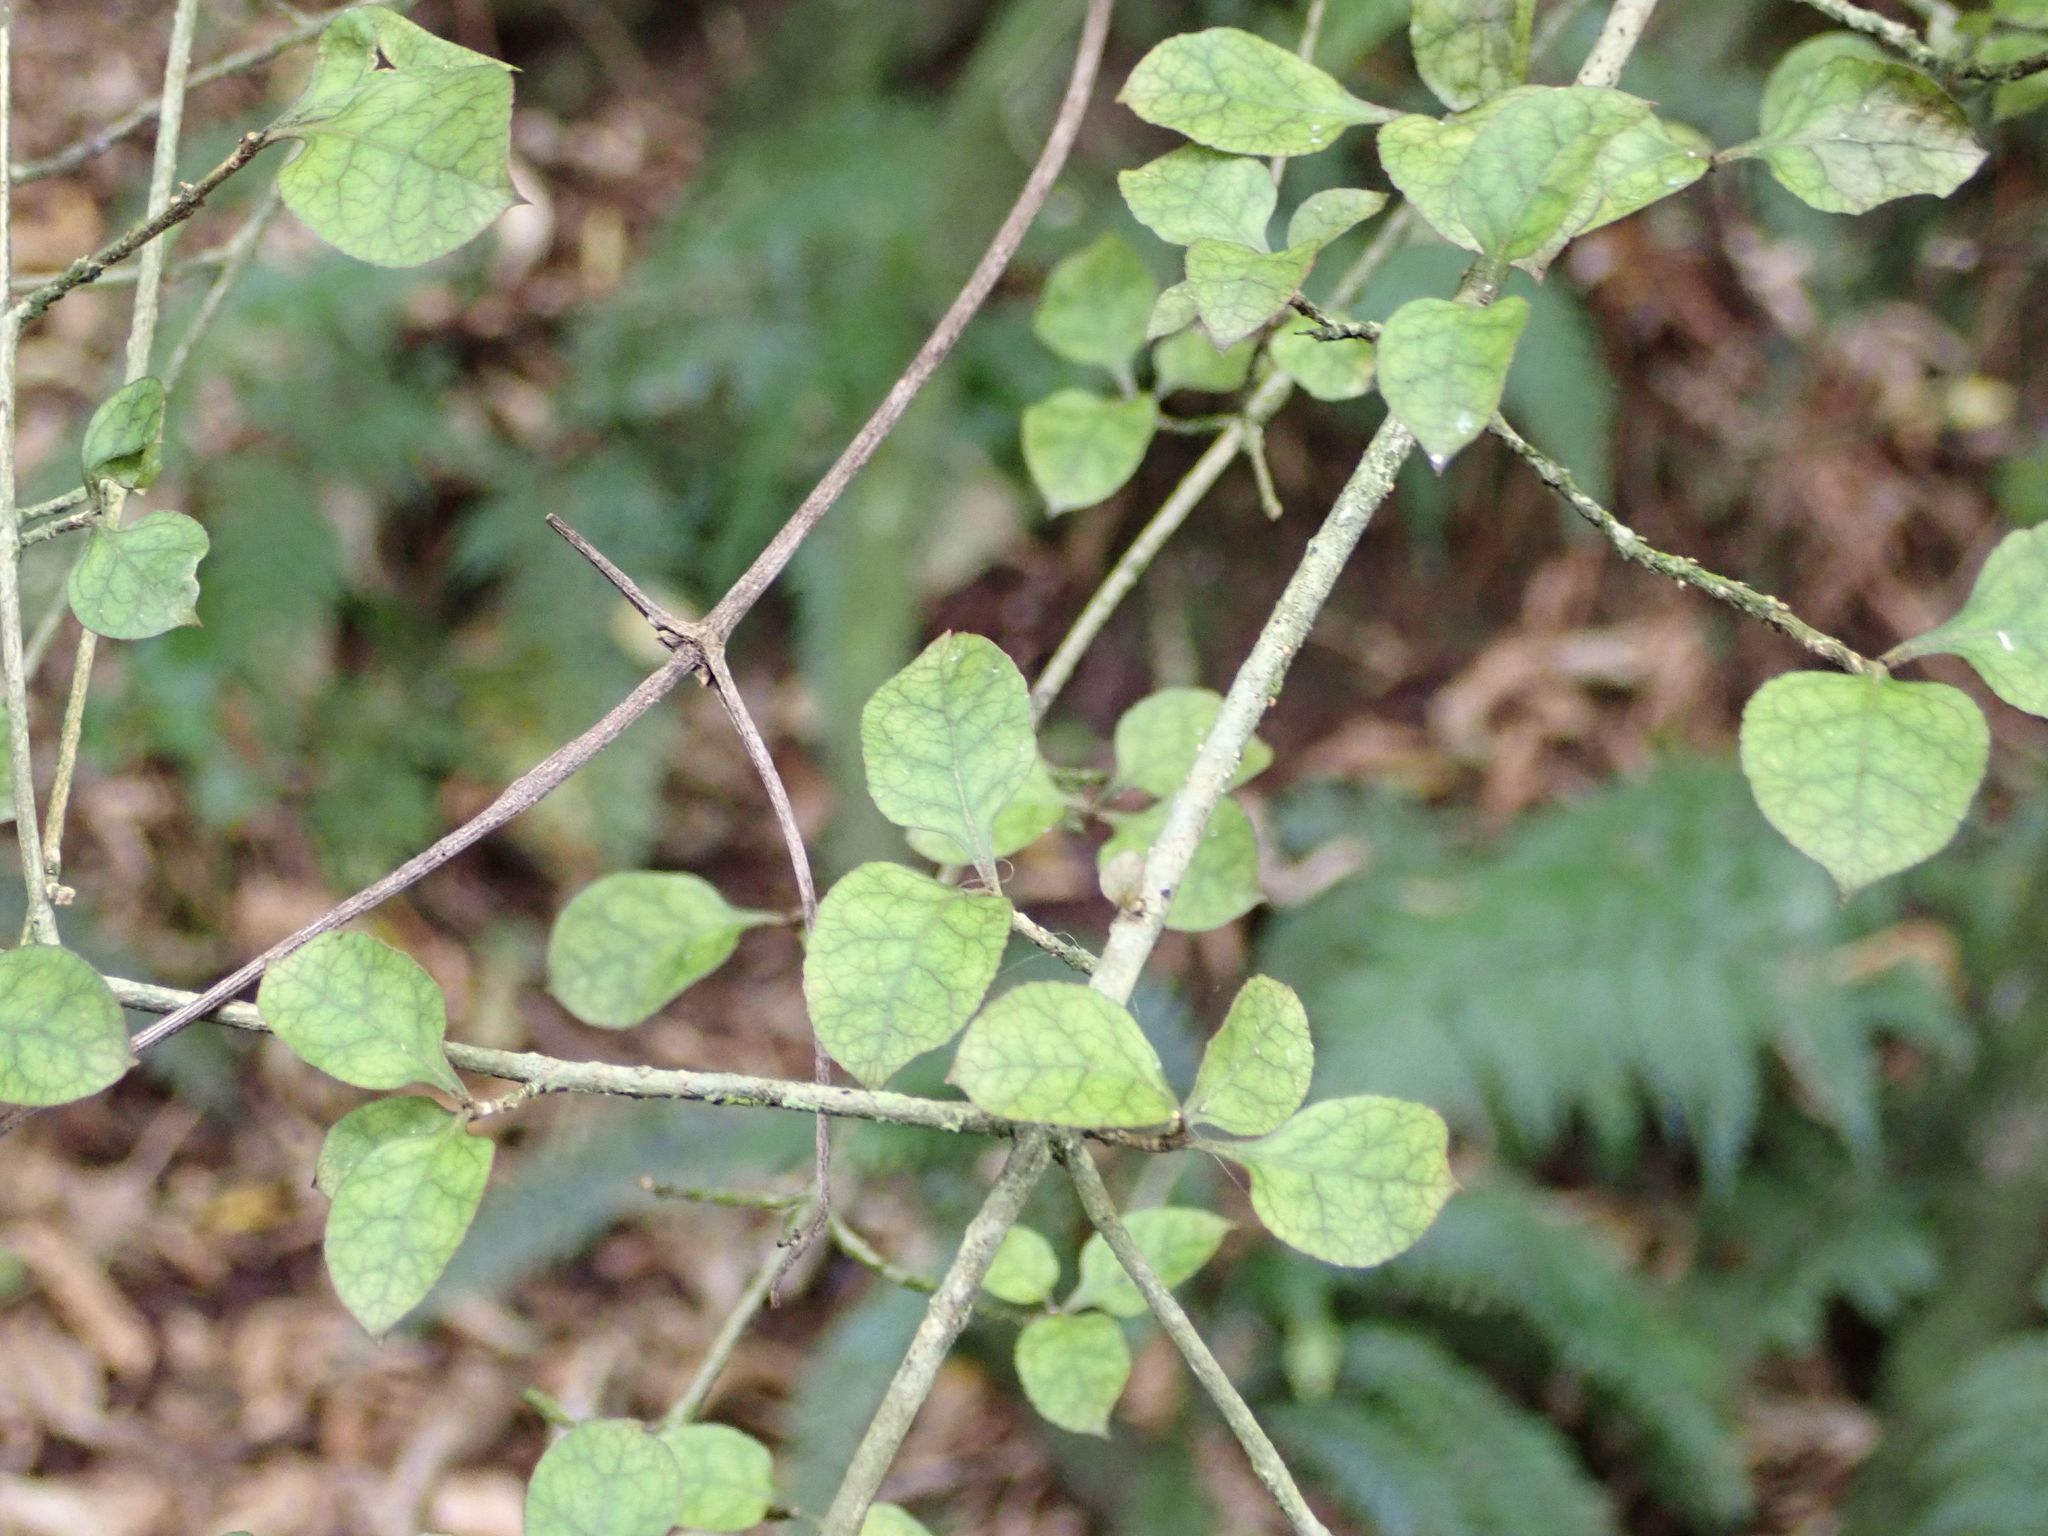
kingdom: Plantae
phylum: Tracheophyta
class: Magnoliopsida
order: Gentianales
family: Rubiaceae
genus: Coprosma
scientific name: Coprosma areolata
